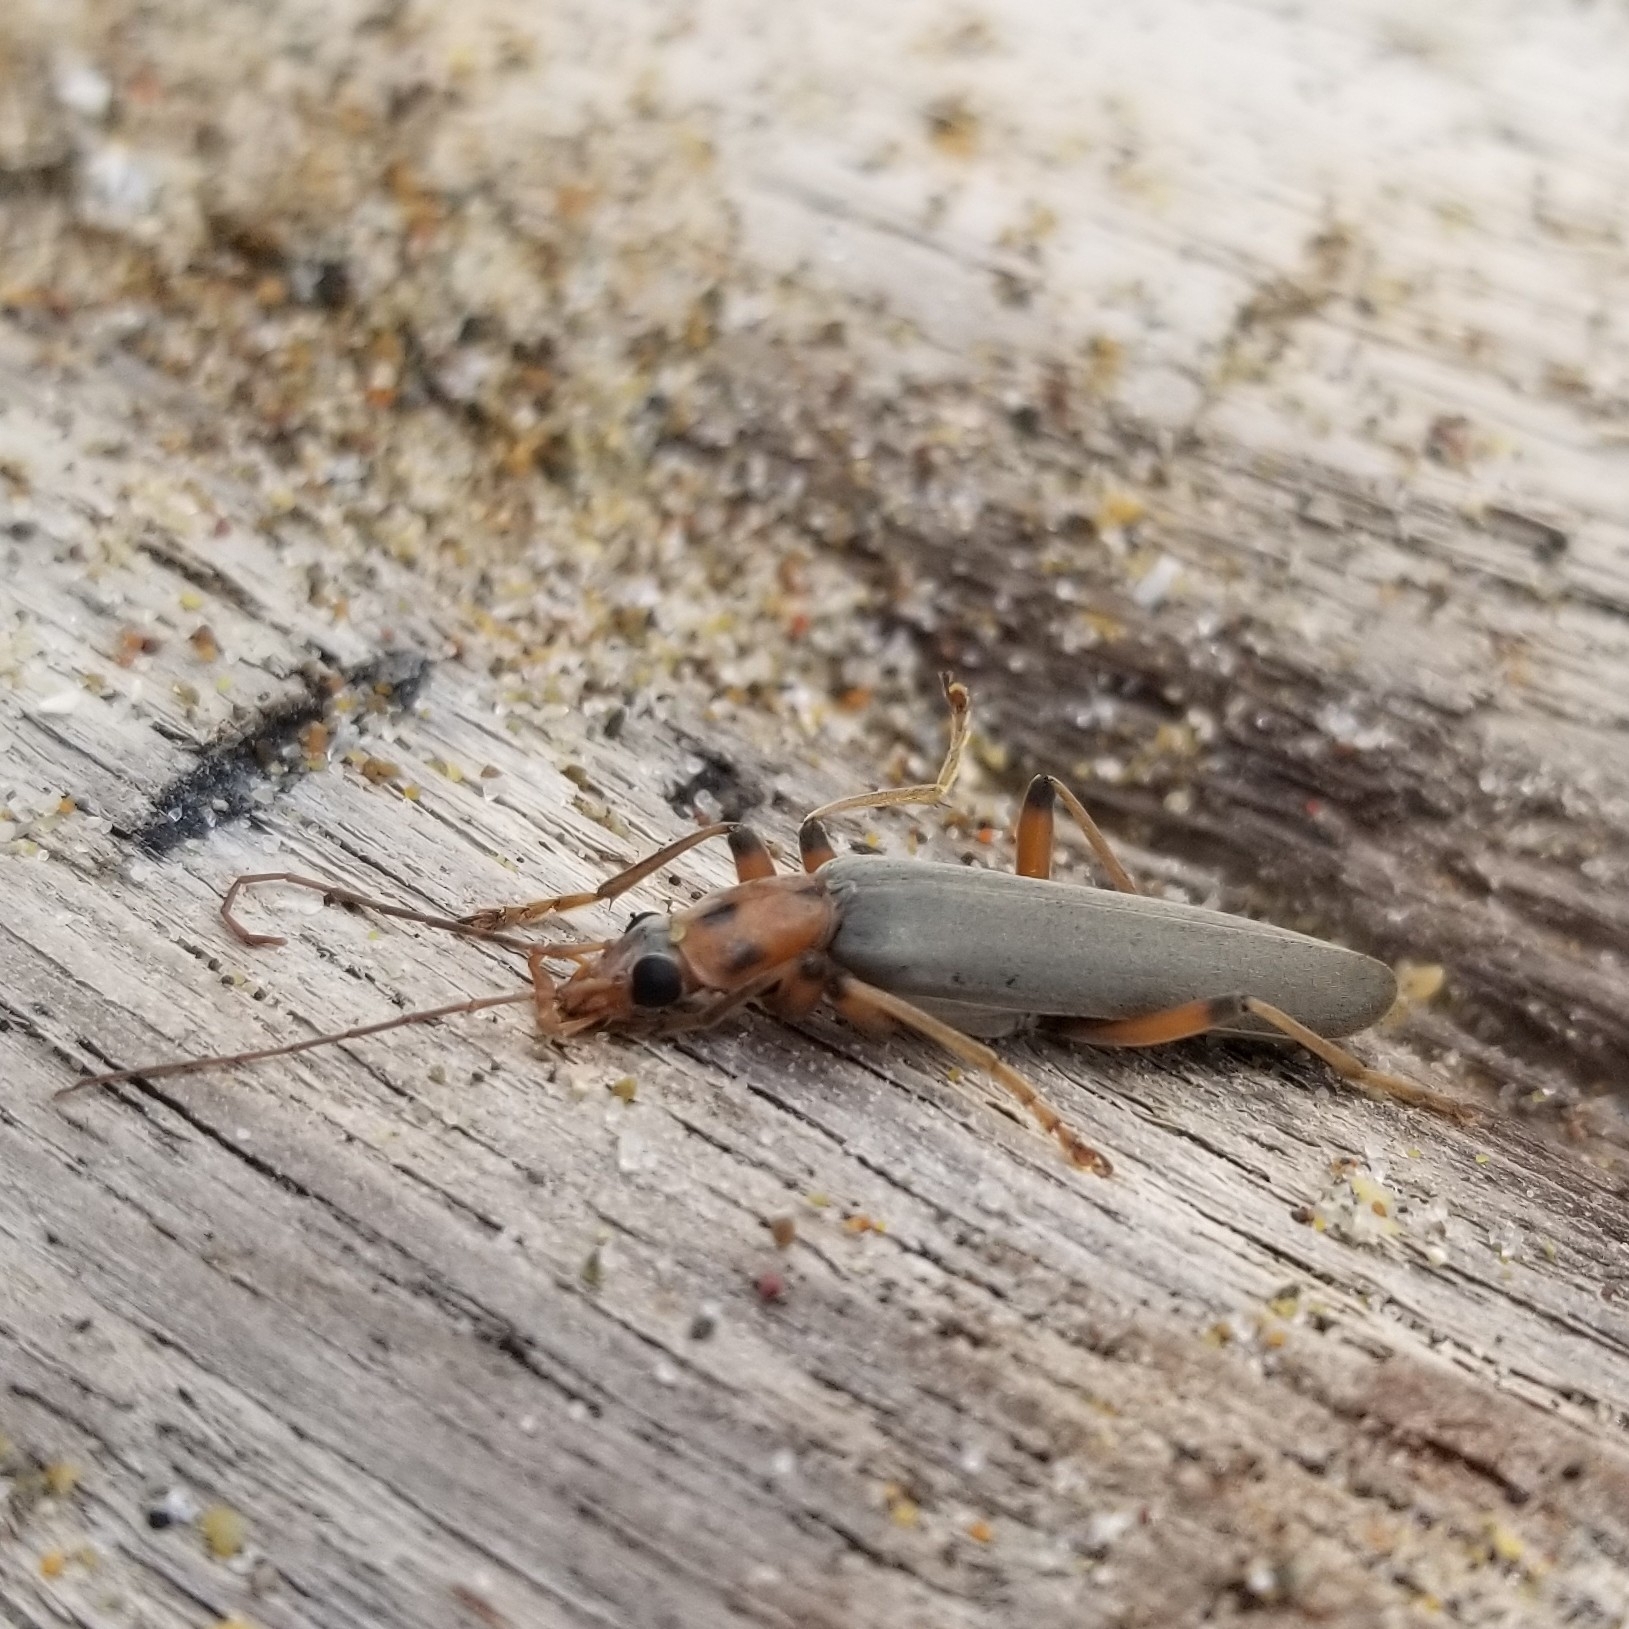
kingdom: Animalia
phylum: Arthropoda
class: Insecta
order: Coleoptera
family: Oedemeridae
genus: Copidita
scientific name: Copidita quadrimaculata
